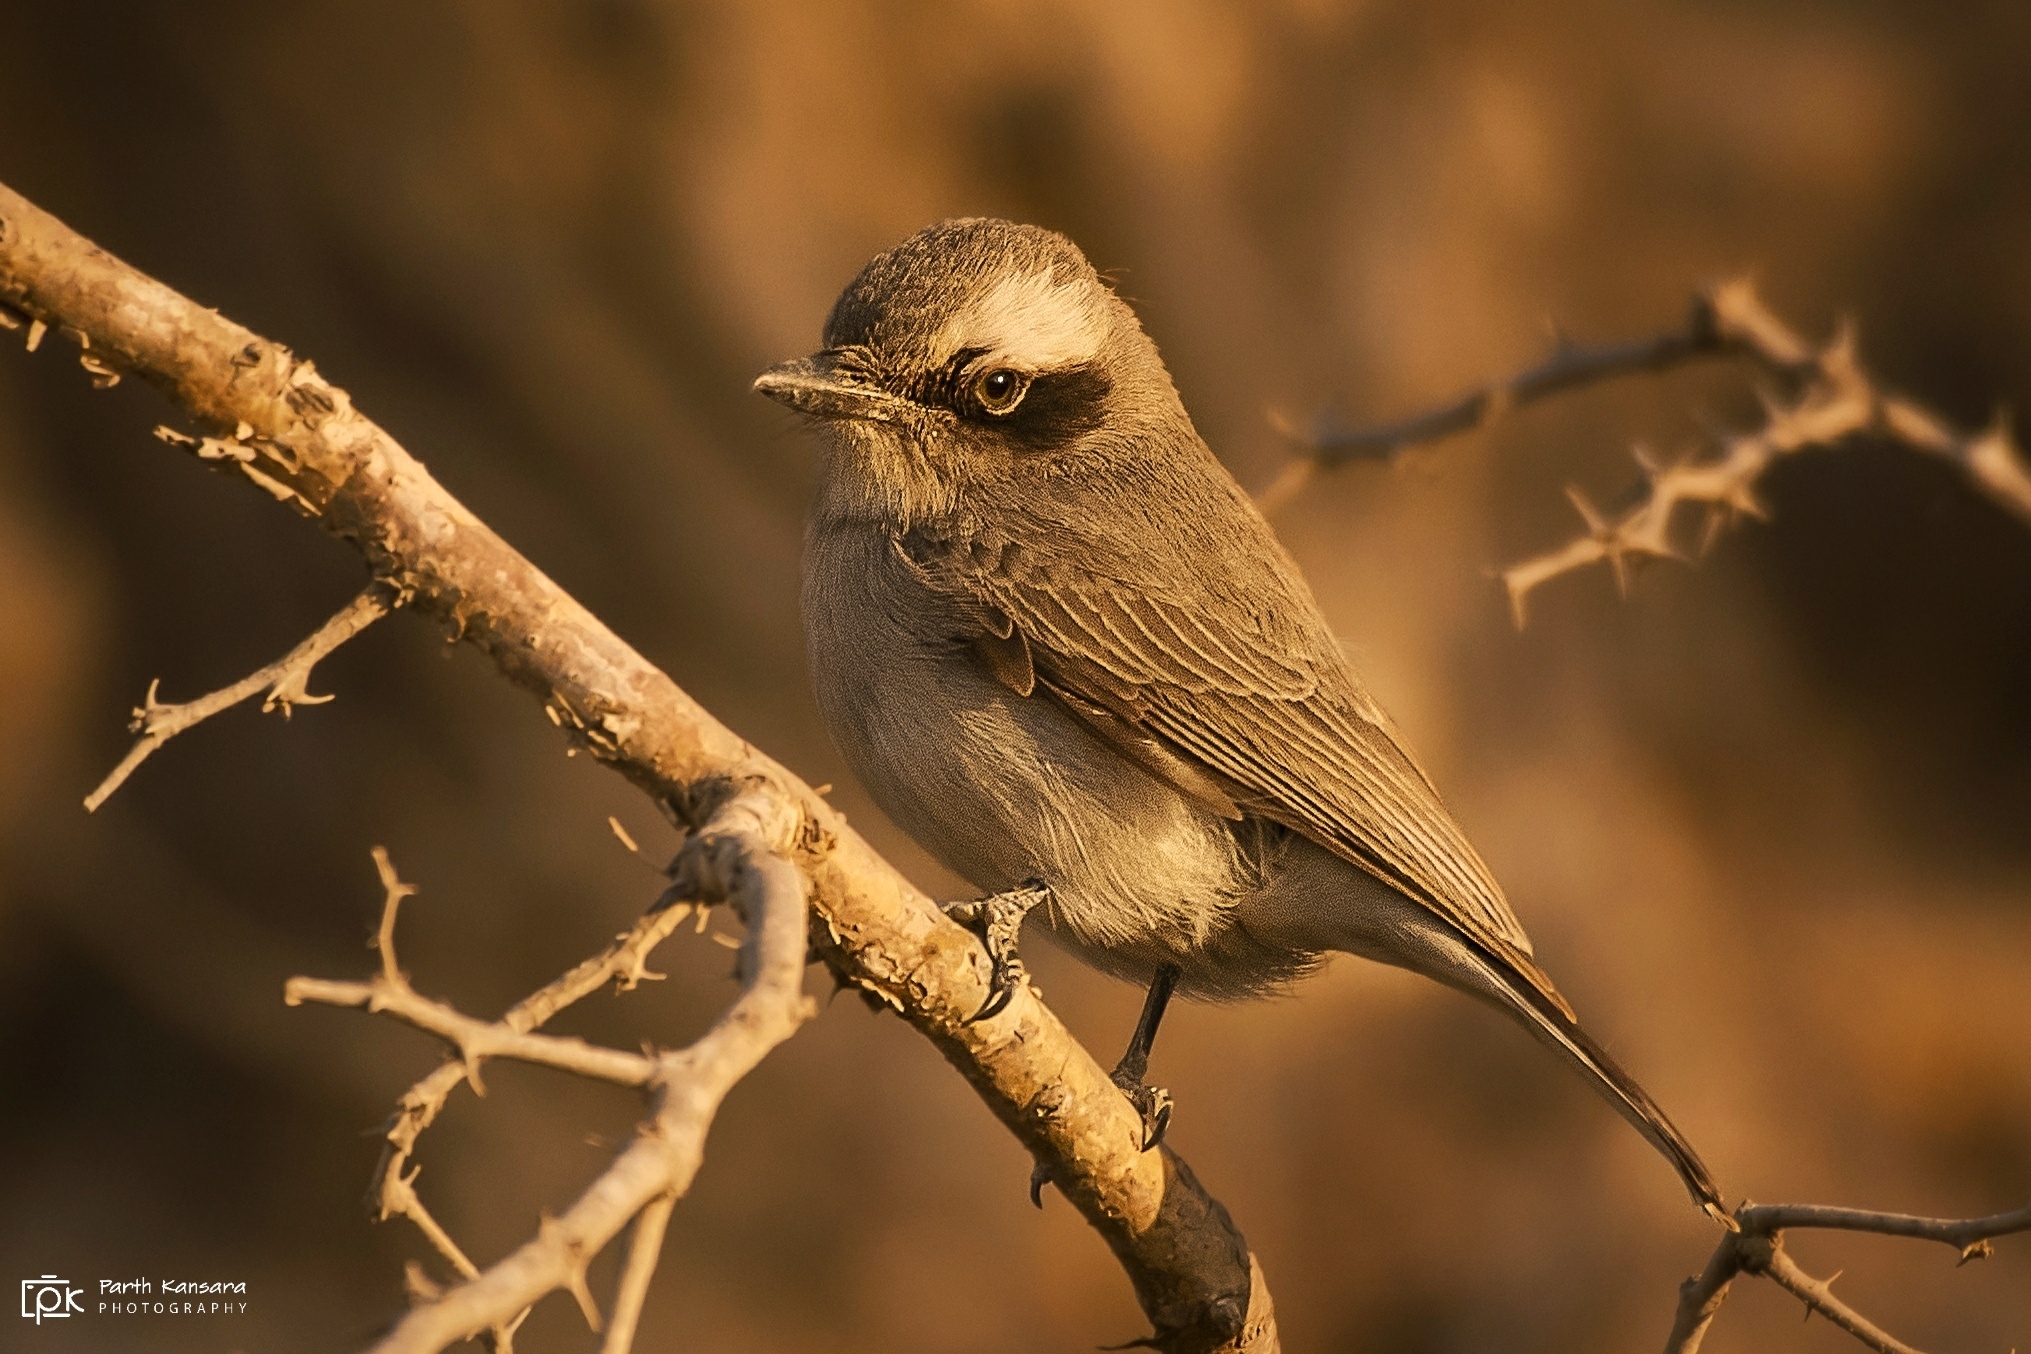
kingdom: Animalia
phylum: Chordata
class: Aves
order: Passeriformes
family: Tephrodornithidae
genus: Tephrodornis
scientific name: Tephrodornis pondicerianus
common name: Common woodshrike
